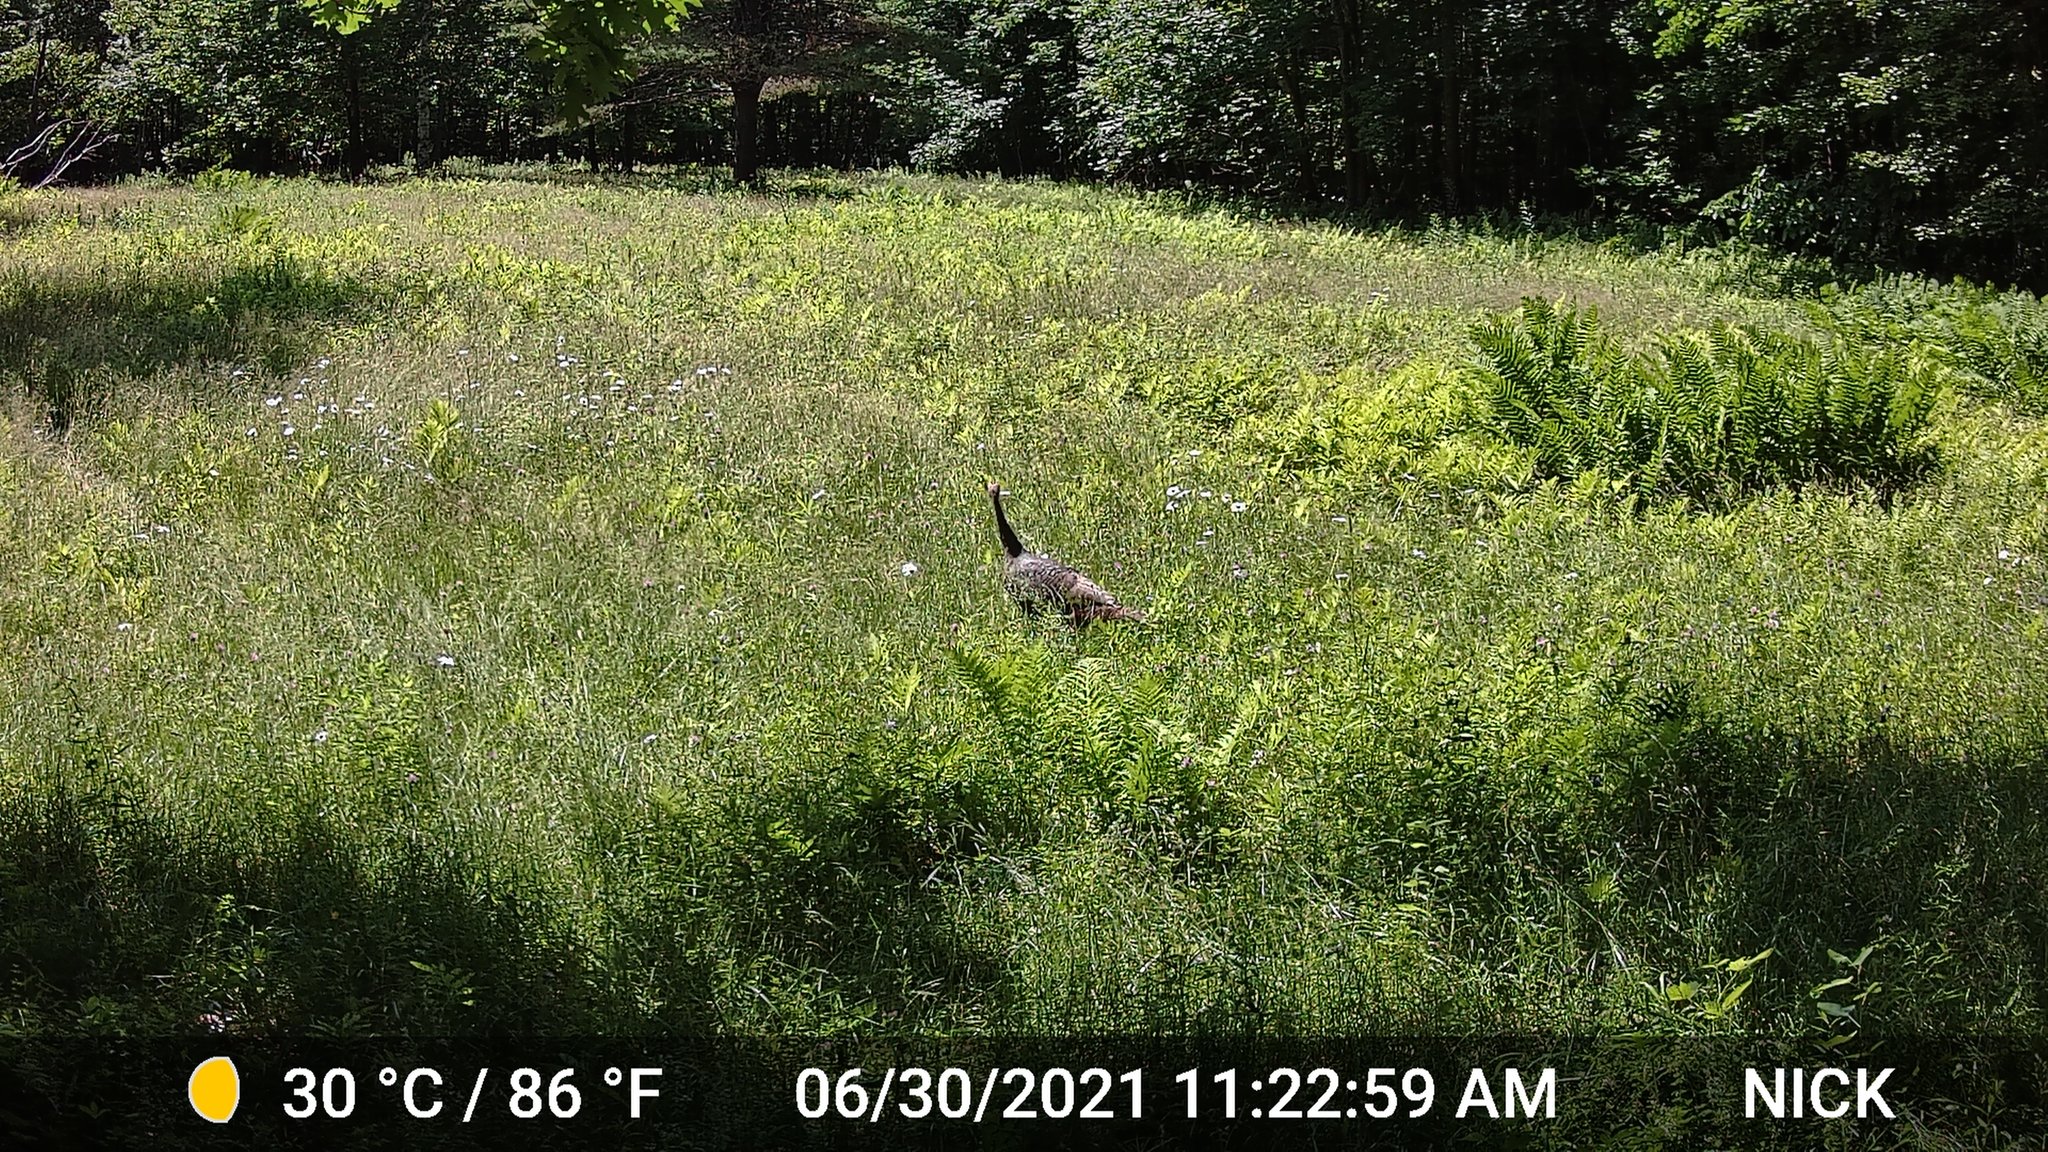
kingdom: Animalia
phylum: Chordata
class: Aves
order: Galliformes
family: Phasianidae
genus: Meleagris
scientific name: Meleagris gallopavo
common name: Wild turkey
